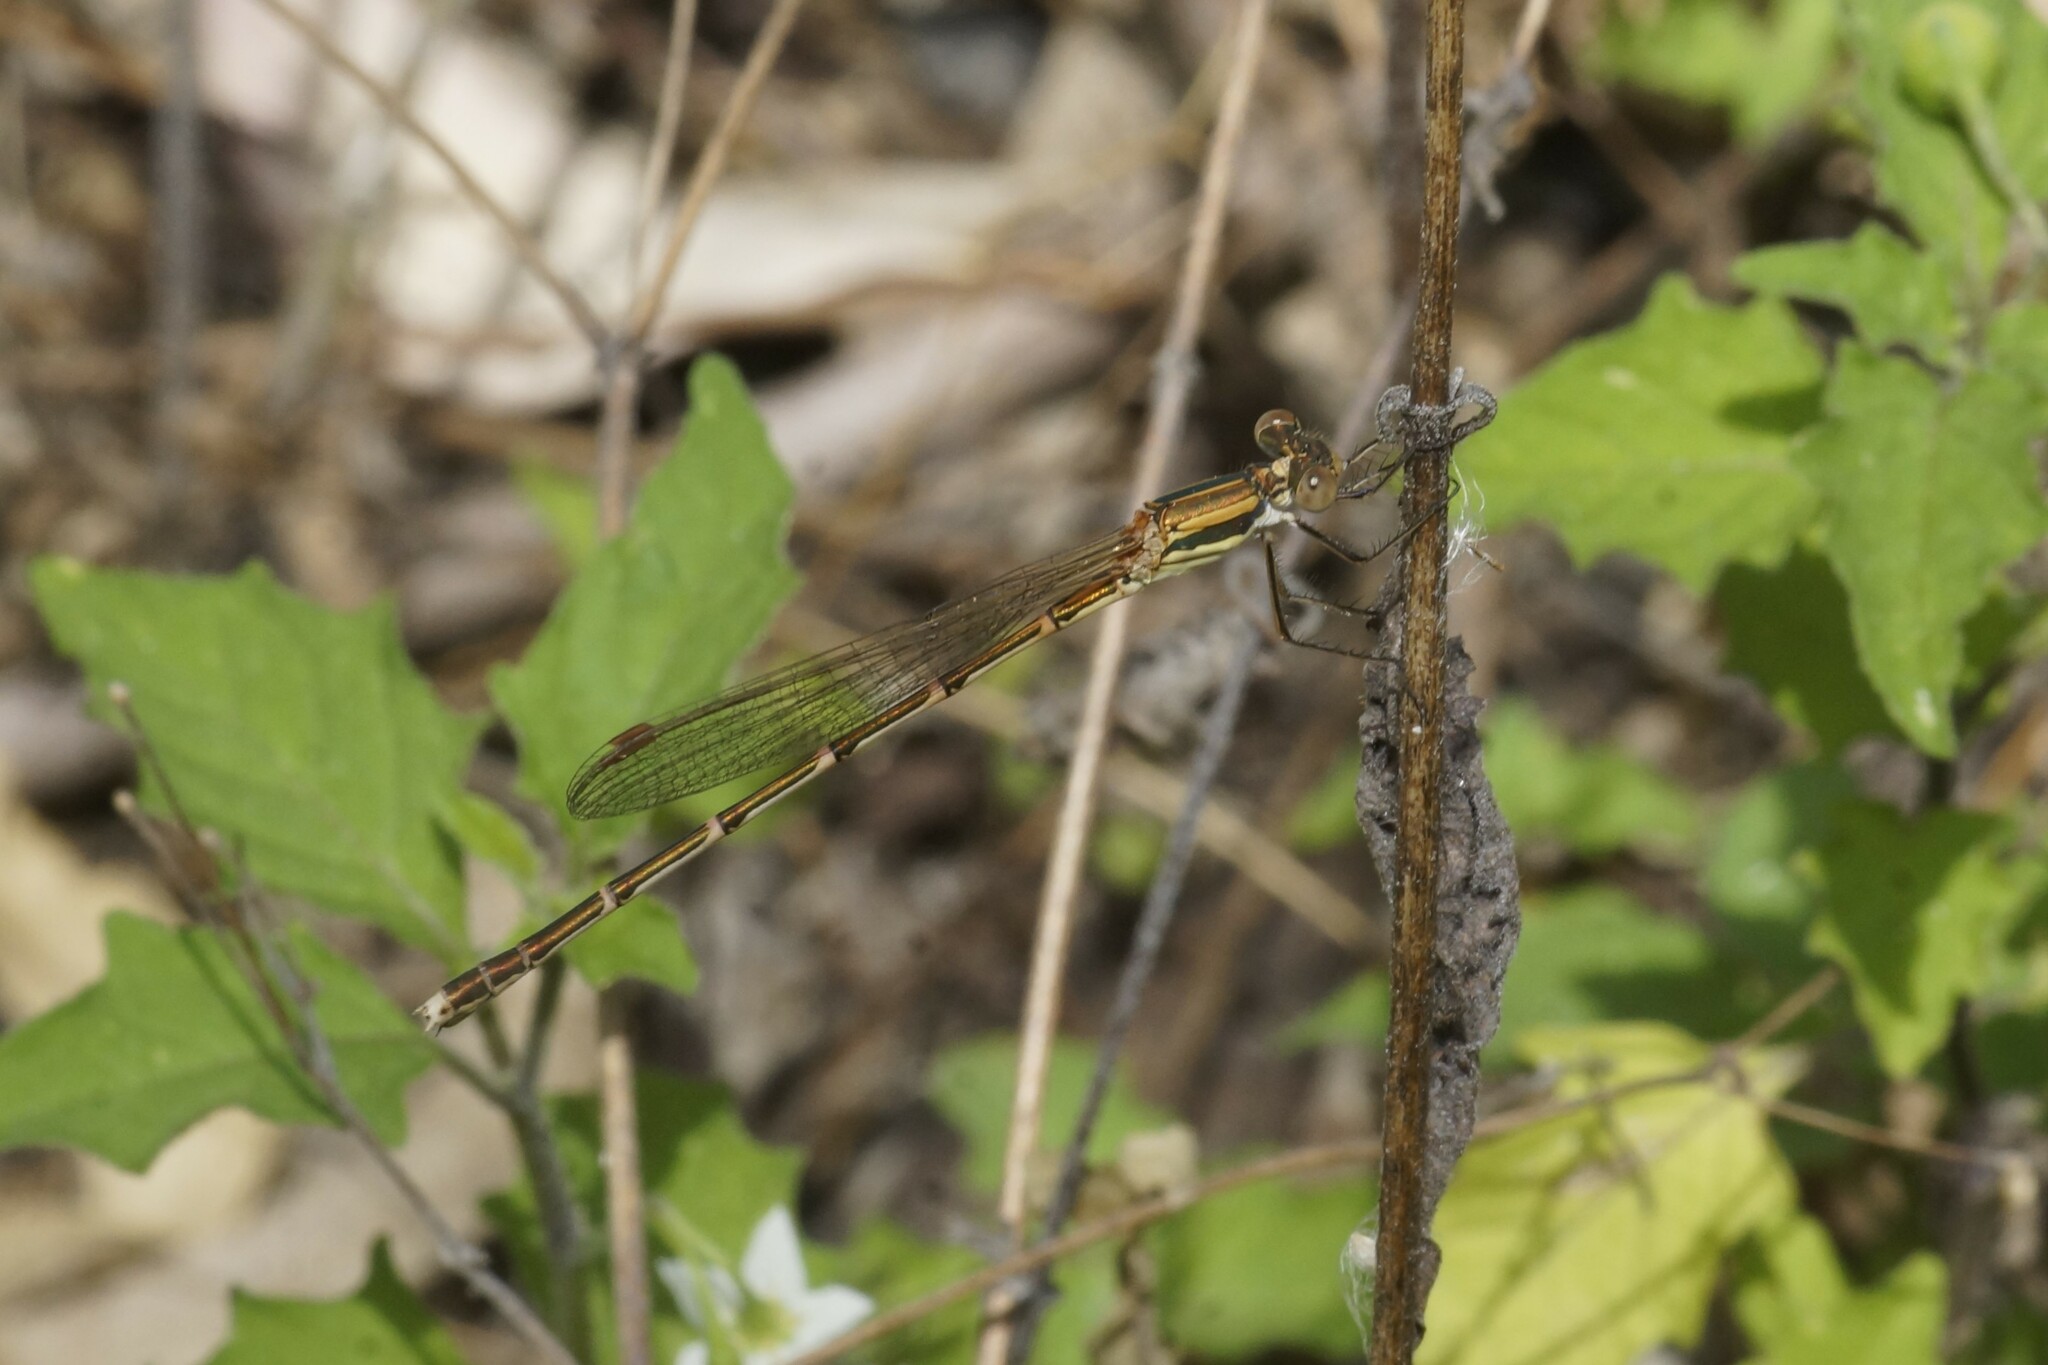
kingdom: Animalia
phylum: Arthropoda
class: Insecta
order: Odonata
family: Lestidae
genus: Austrolestes
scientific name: Austrolestes analis
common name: Slender ringtail
